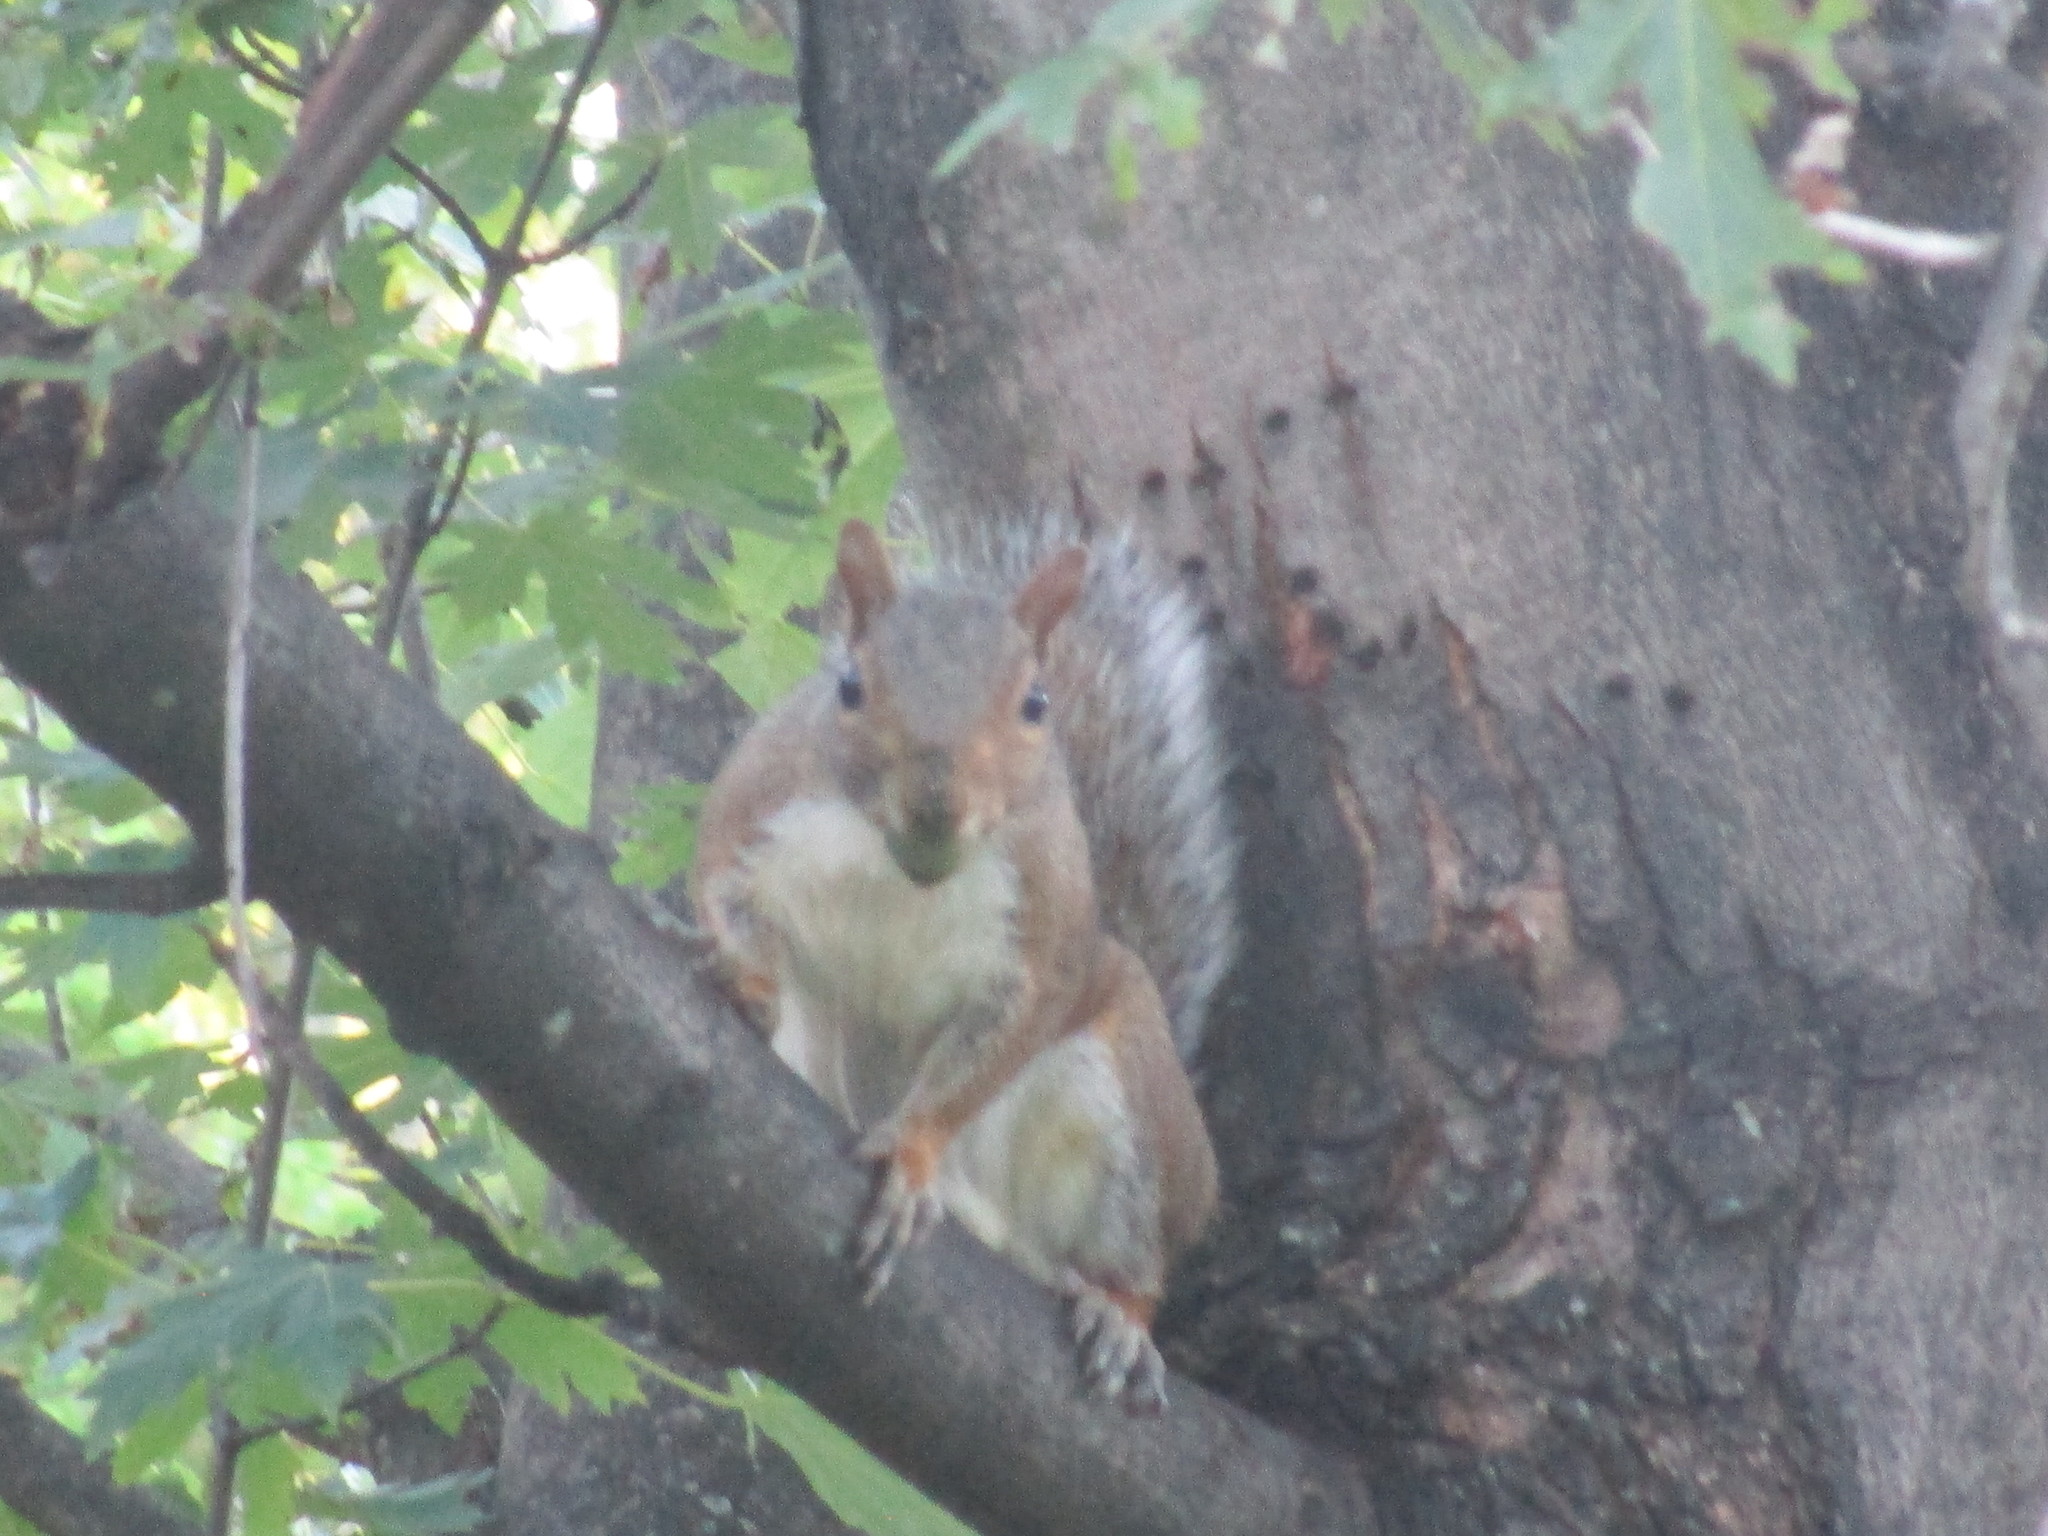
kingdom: Animalia
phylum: Chordata
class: Mammalia
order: Rodentia
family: Sciuridae
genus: Sciurus
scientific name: Sciurus carolinensis
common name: Eastern gray squirrel
